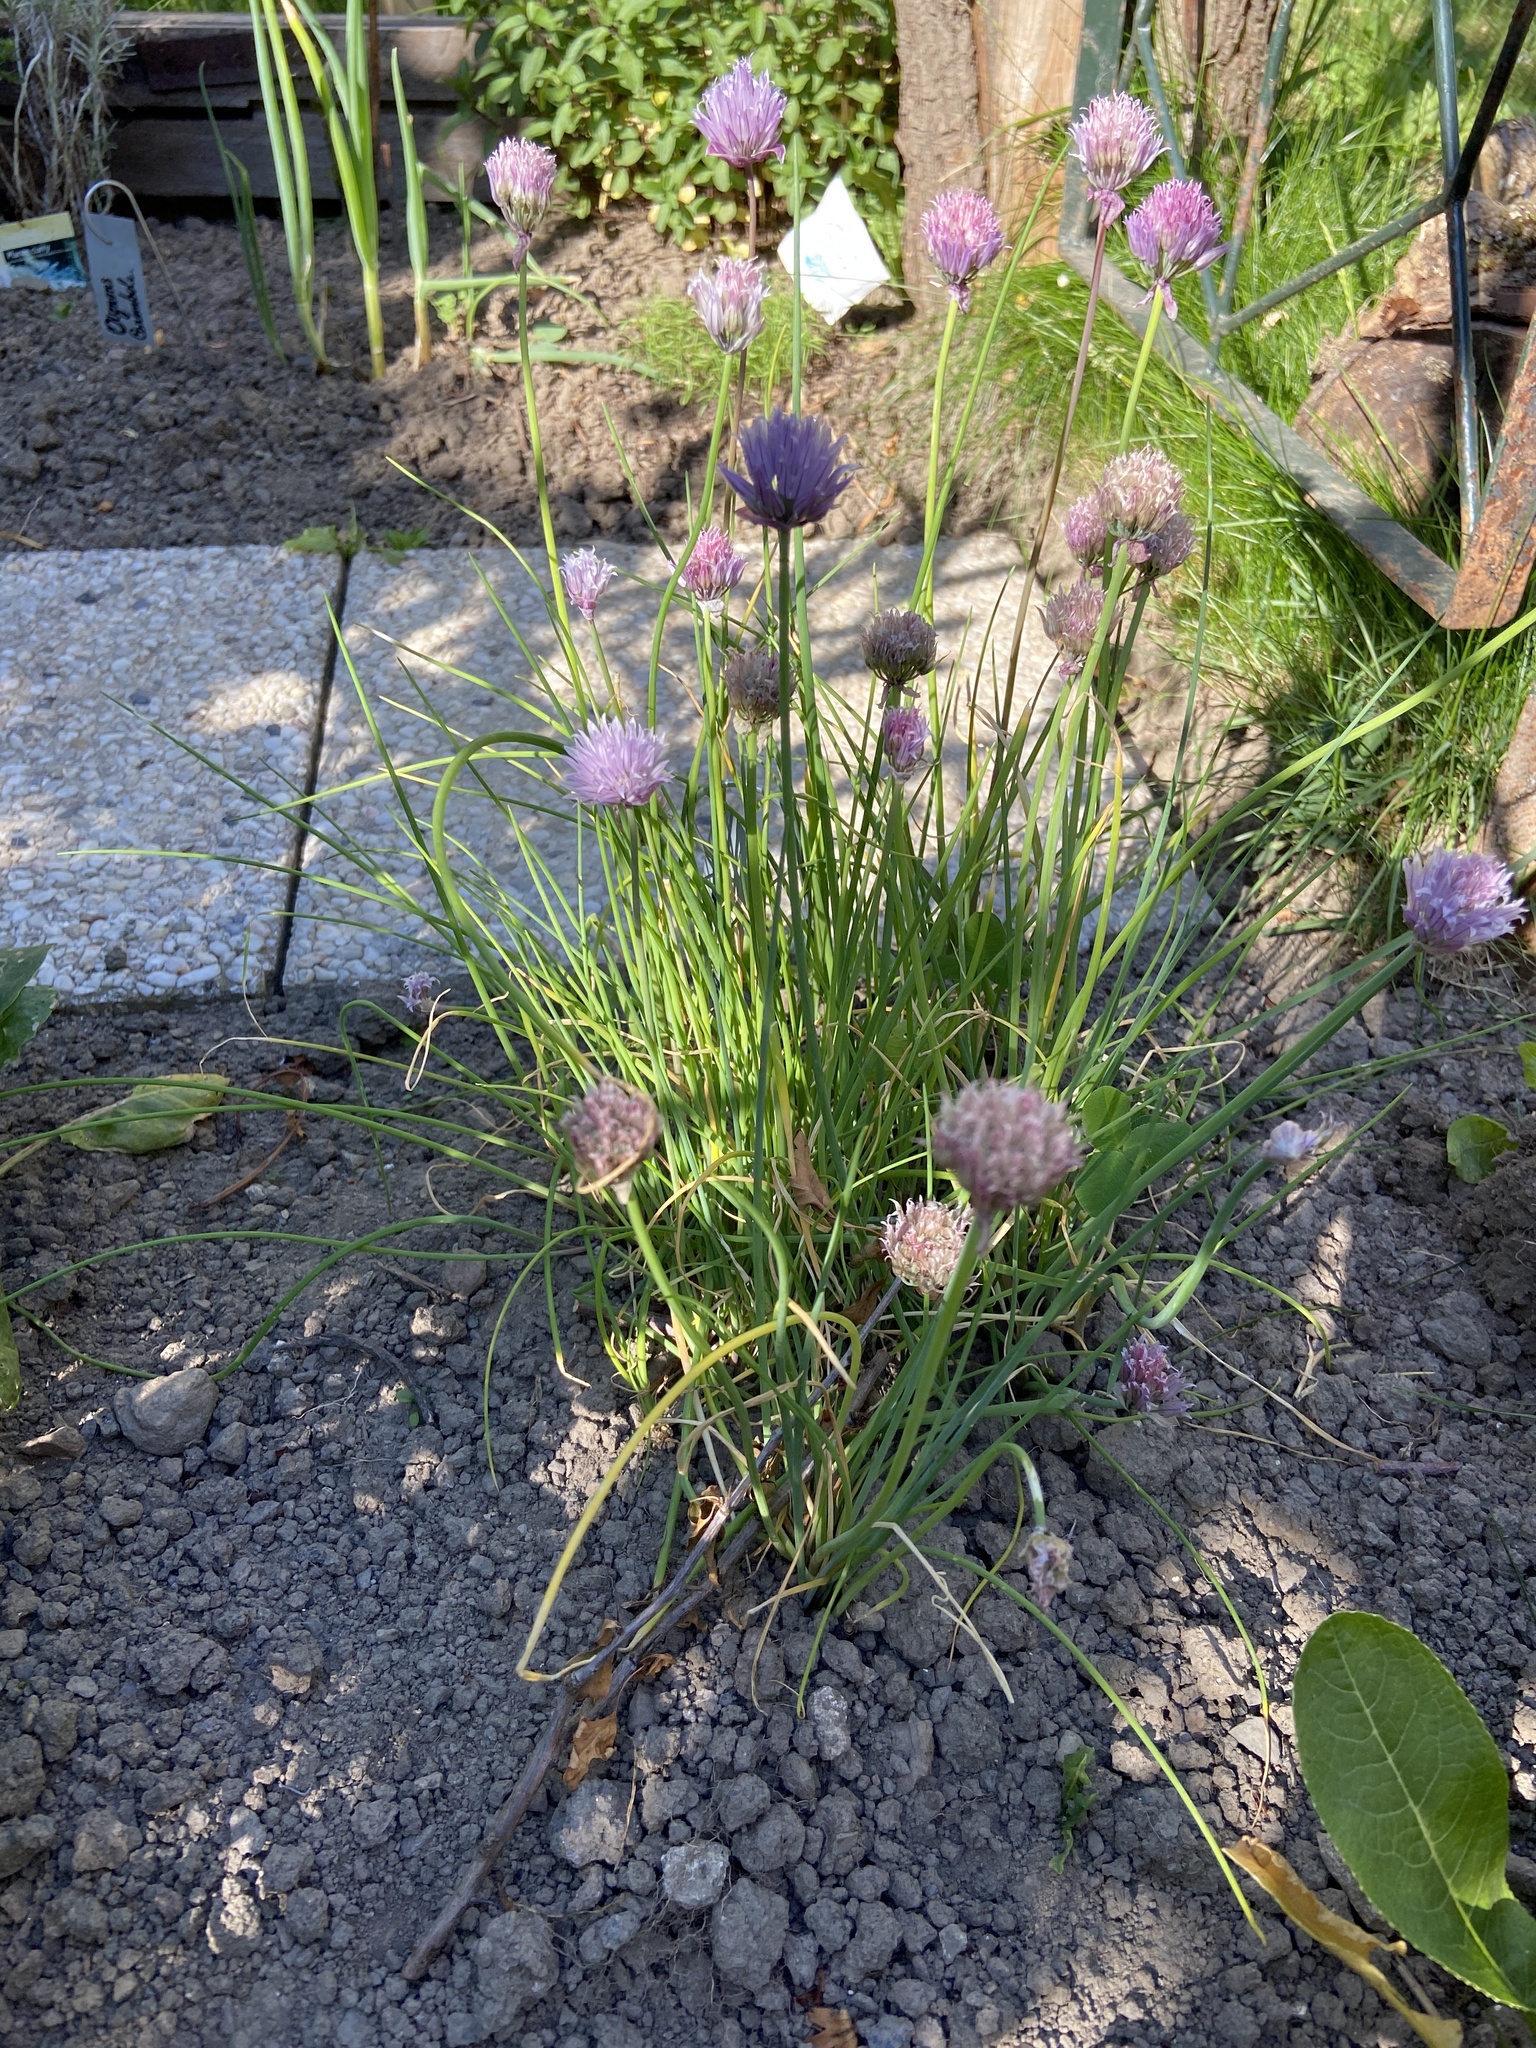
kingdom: Plantae
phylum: Tracheophyta
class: Liliopsida
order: Asparagales
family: Amaryllidaceae
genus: Allium
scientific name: Allium schoenoprasum
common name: Chives
